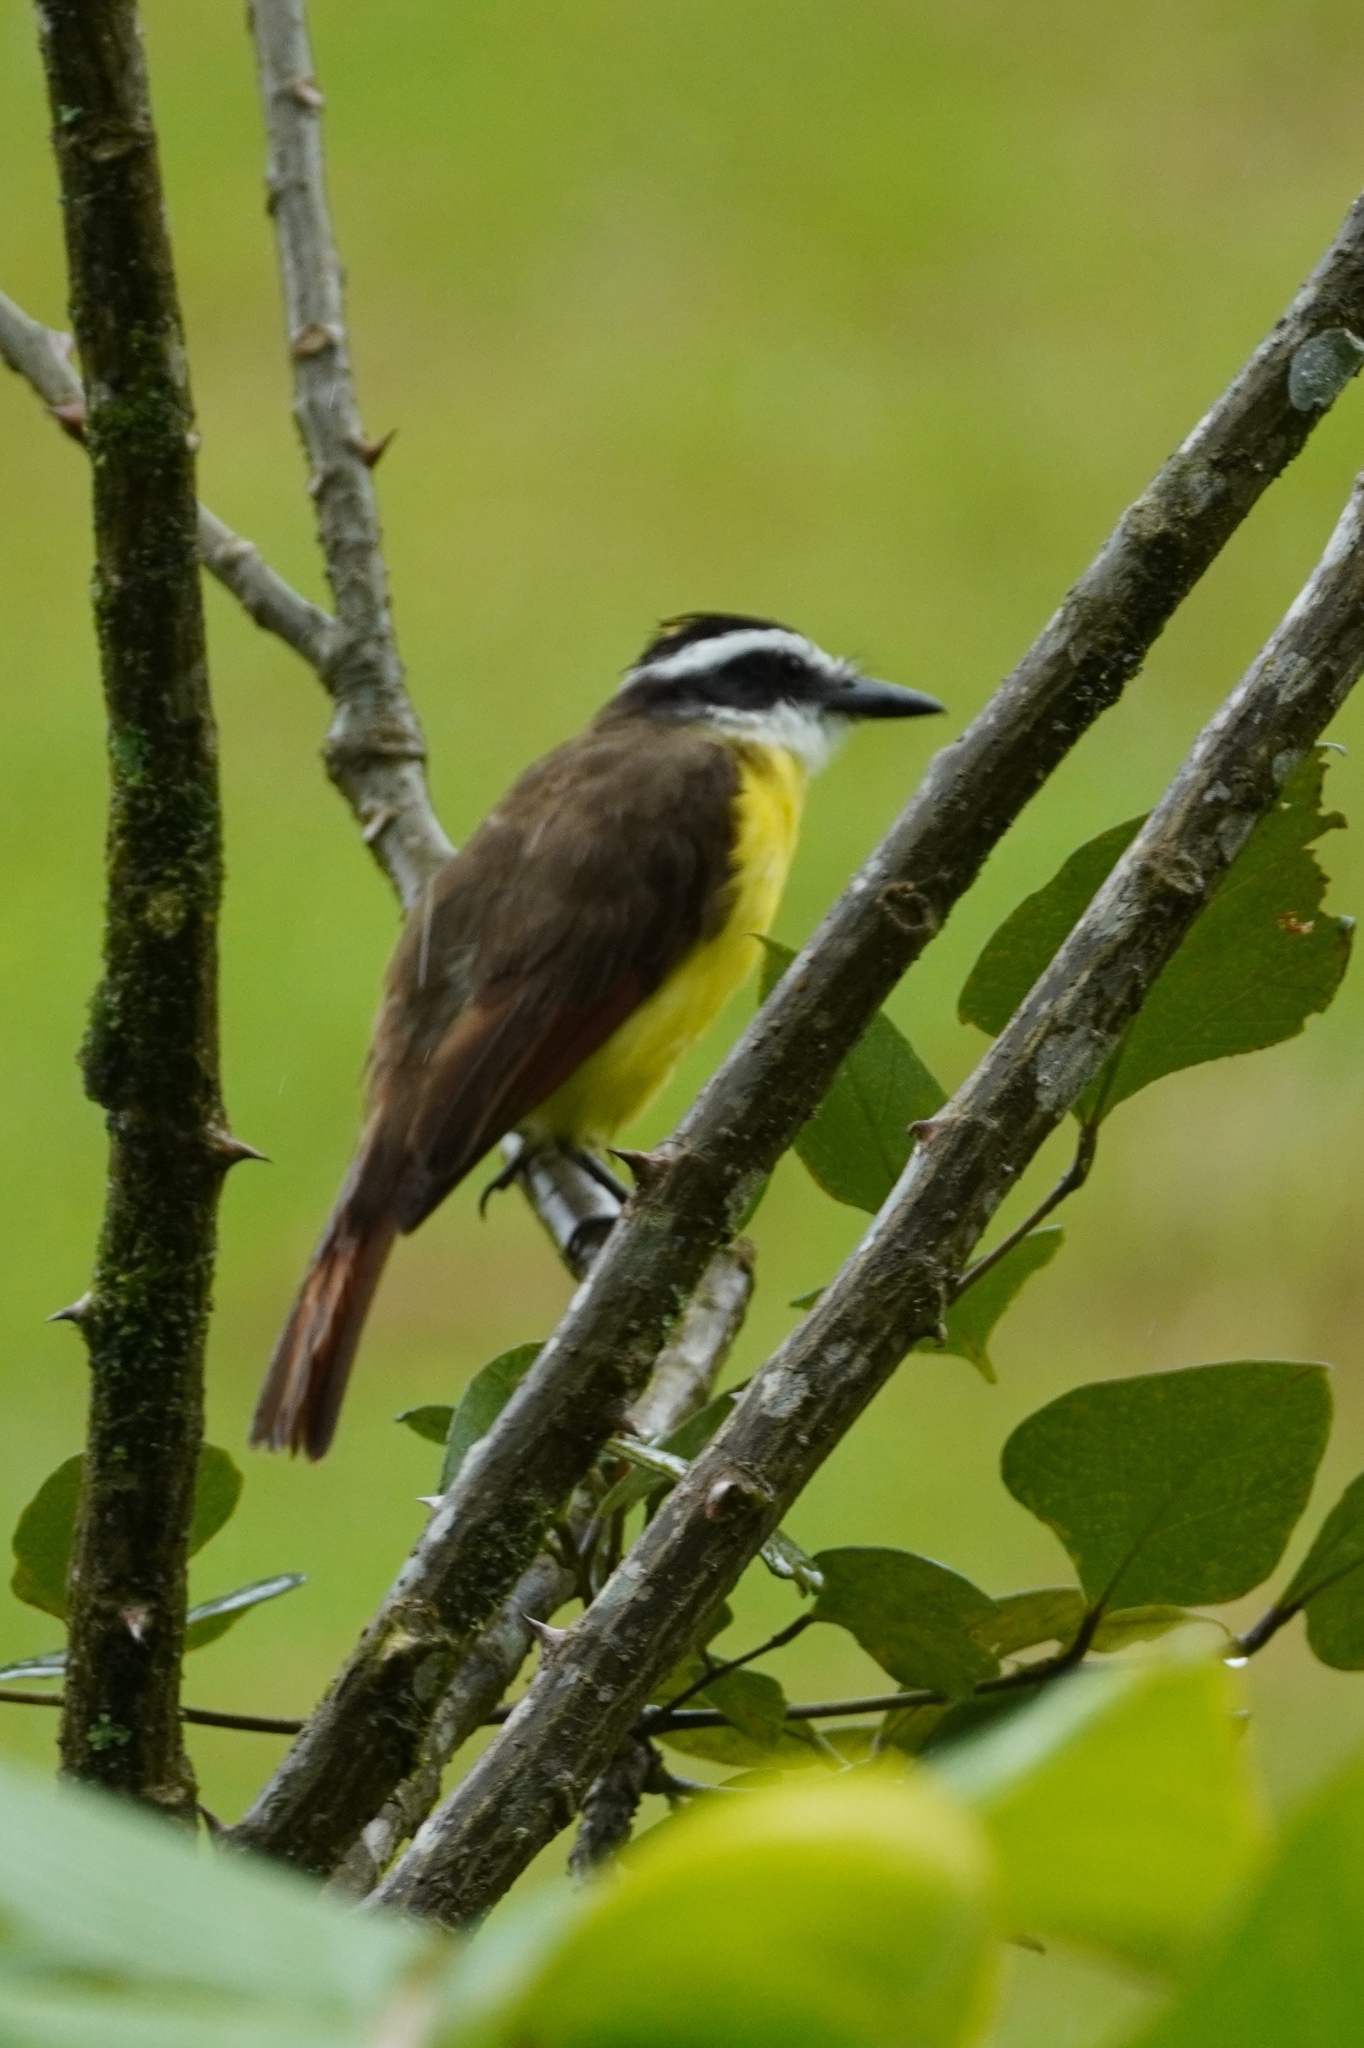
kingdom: Animalia
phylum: Chordata
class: Aves
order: Passeriformes
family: Tyrannidae
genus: Pitangus
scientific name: Pitangus sulphuratus
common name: Great kiskadee
